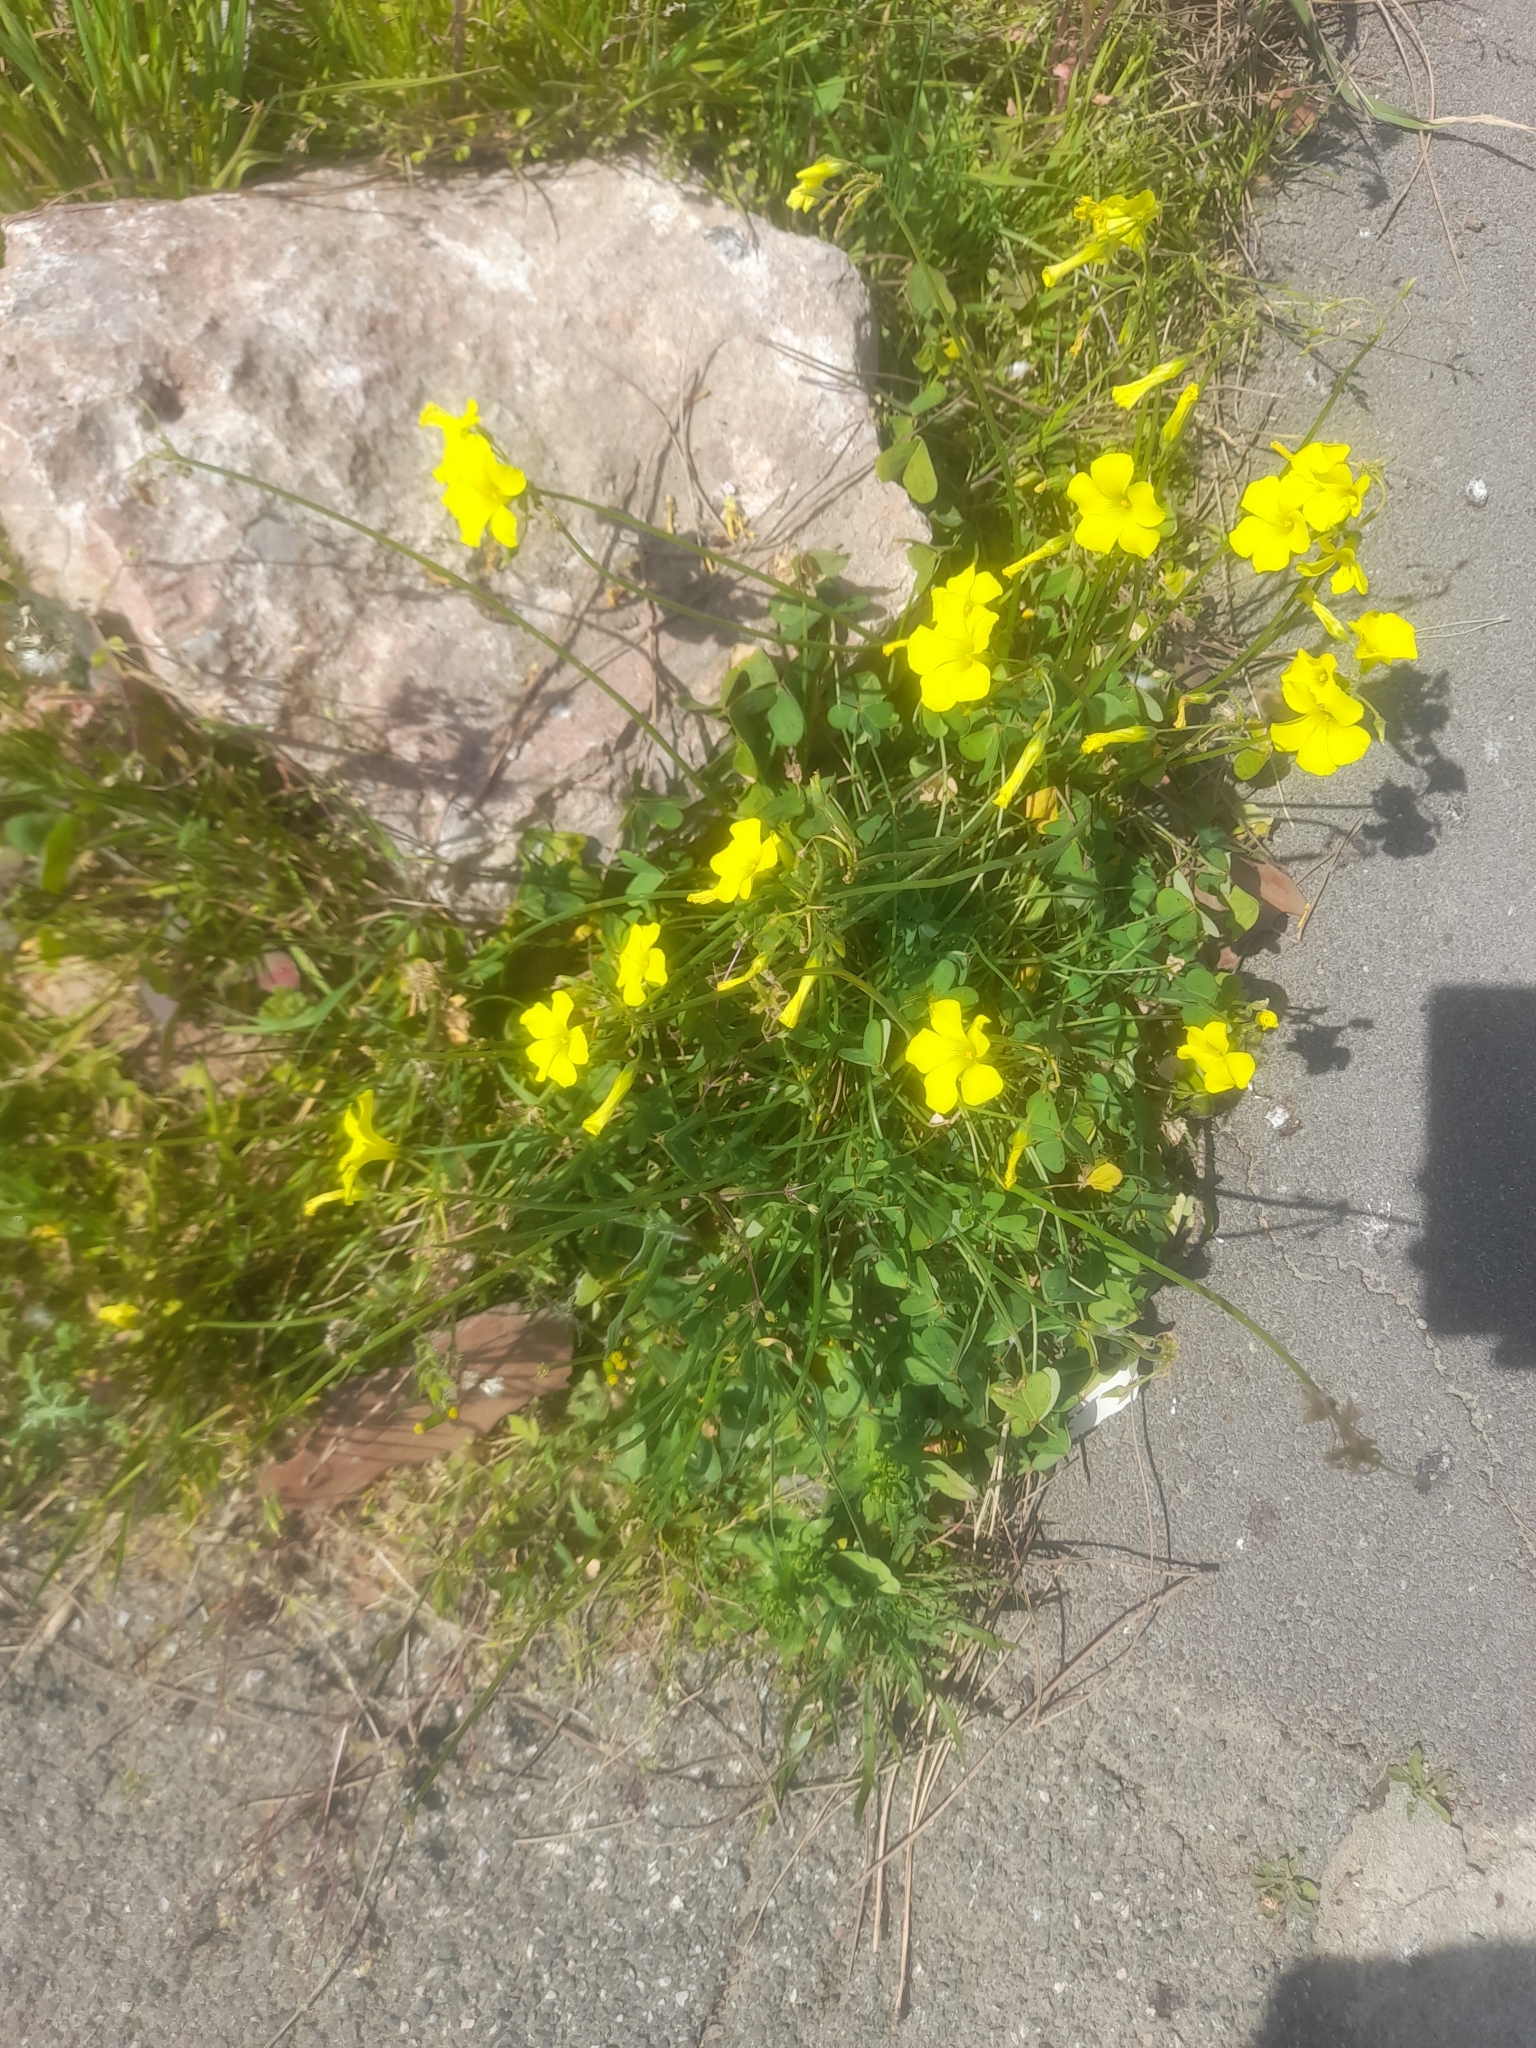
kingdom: Plantae
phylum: Tracheophyta
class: Magnoliopsida
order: Oxalidales
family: Oxalidaceae
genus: Oxalis
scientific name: Oxalis pes-caprae
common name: Bermuda-buttercup
